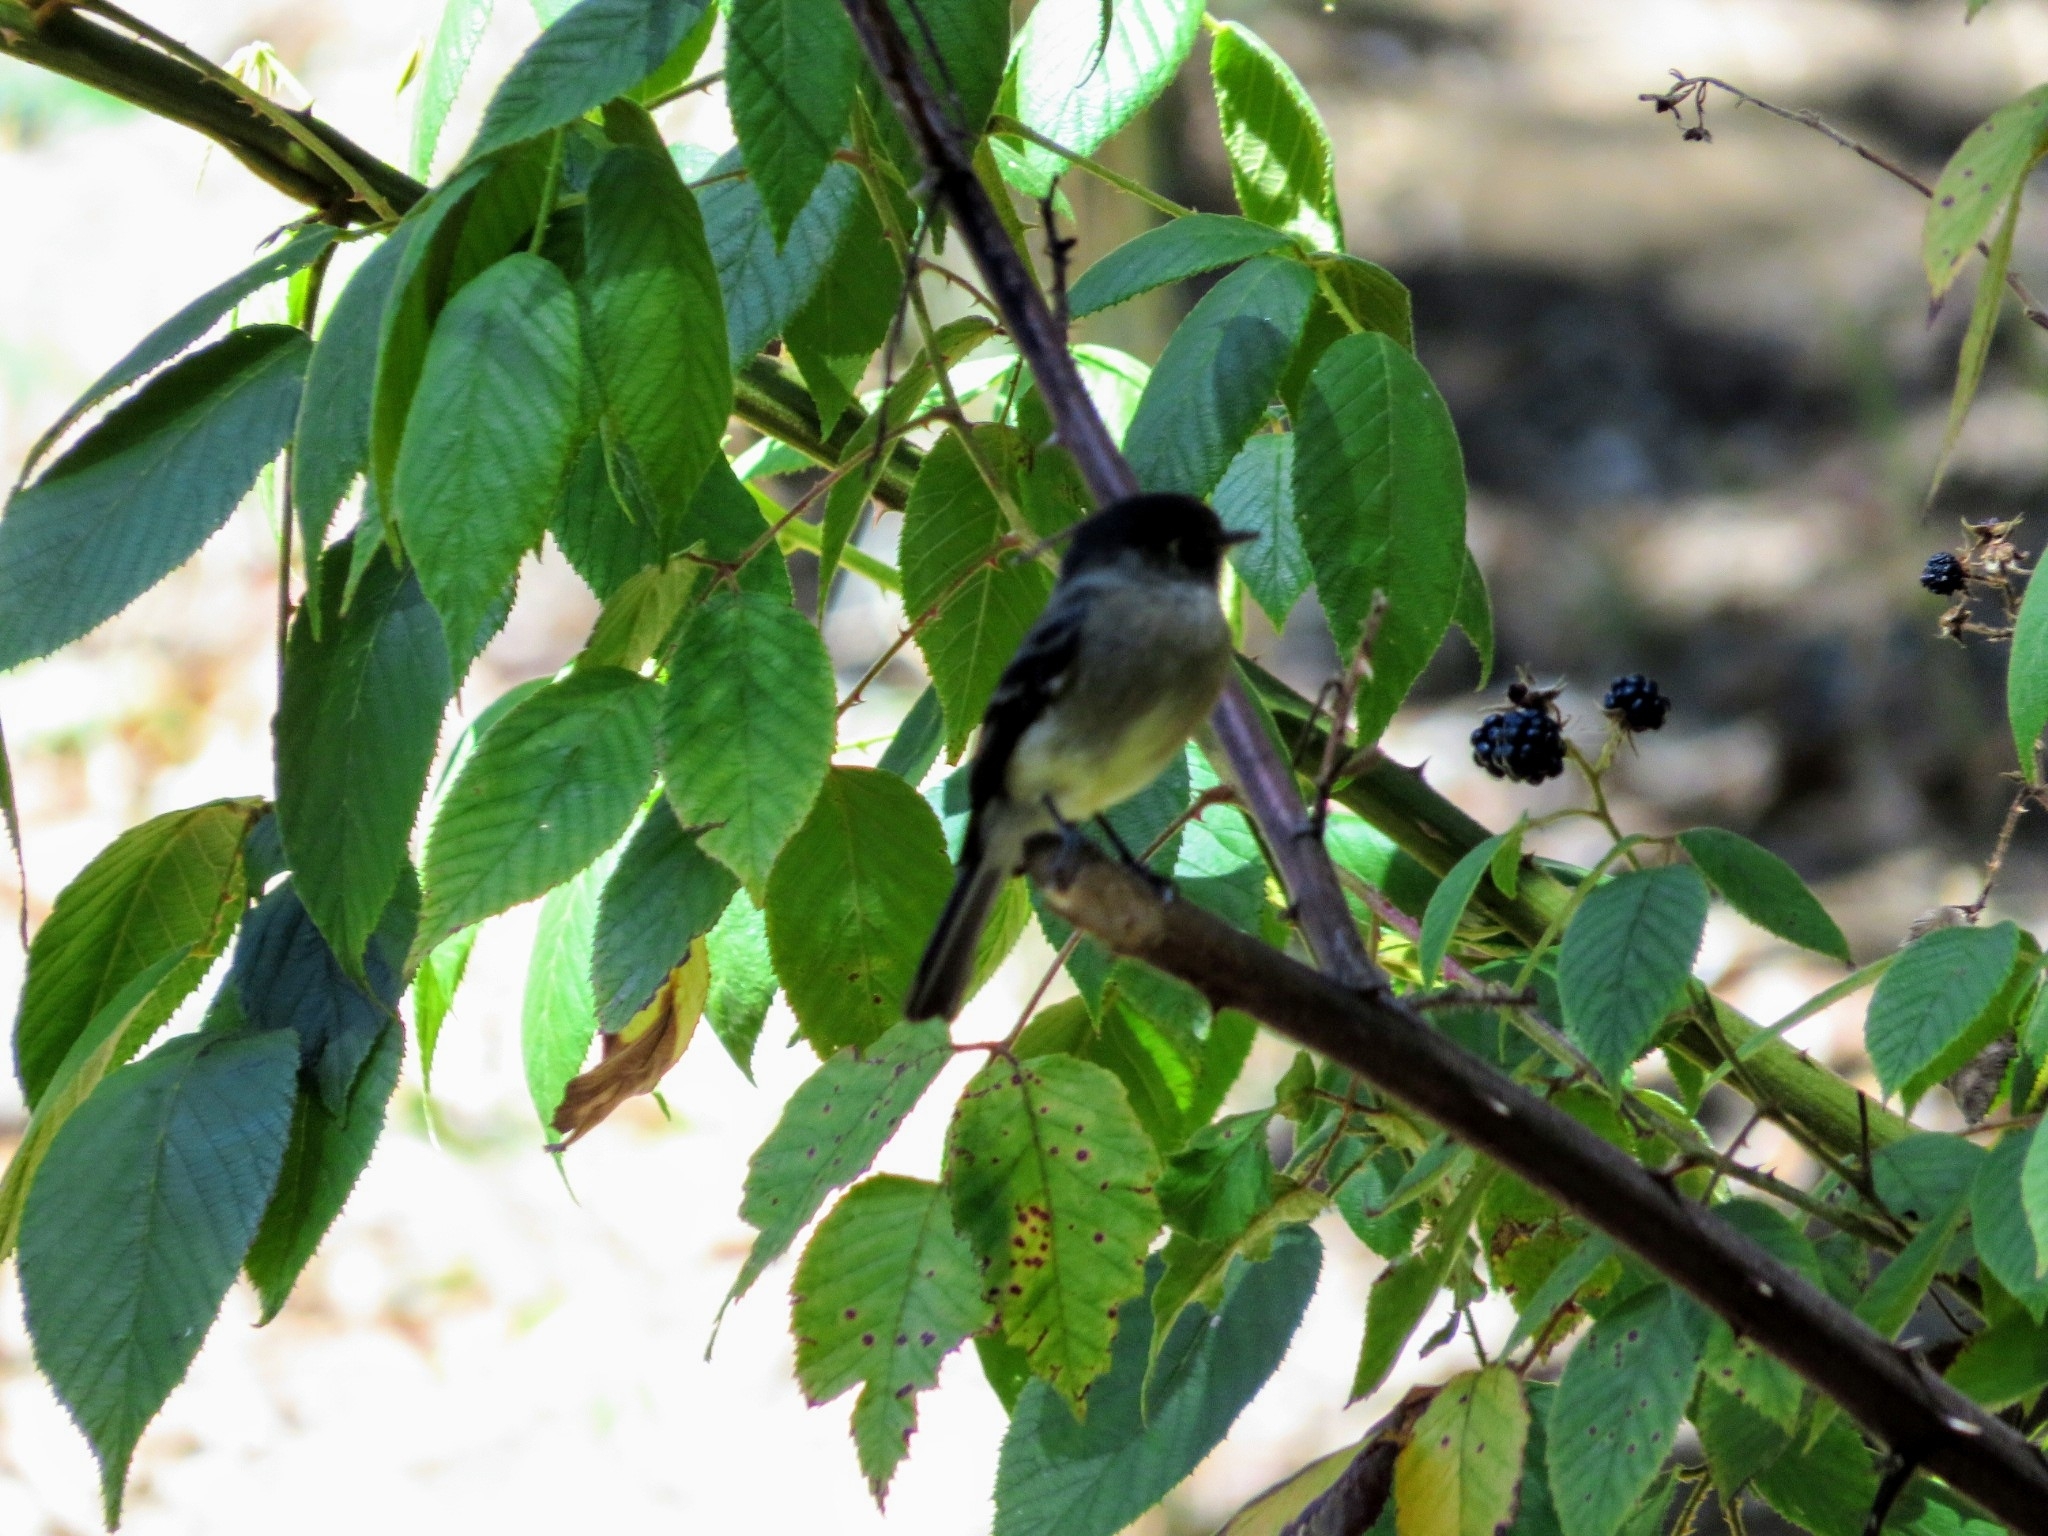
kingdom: Animalia
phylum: Chordata
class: Aves
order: Passeriformes
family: Tyrannidae
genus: Empidonax
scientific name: Empidonax atriceps
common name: Black-capped flycatcher
